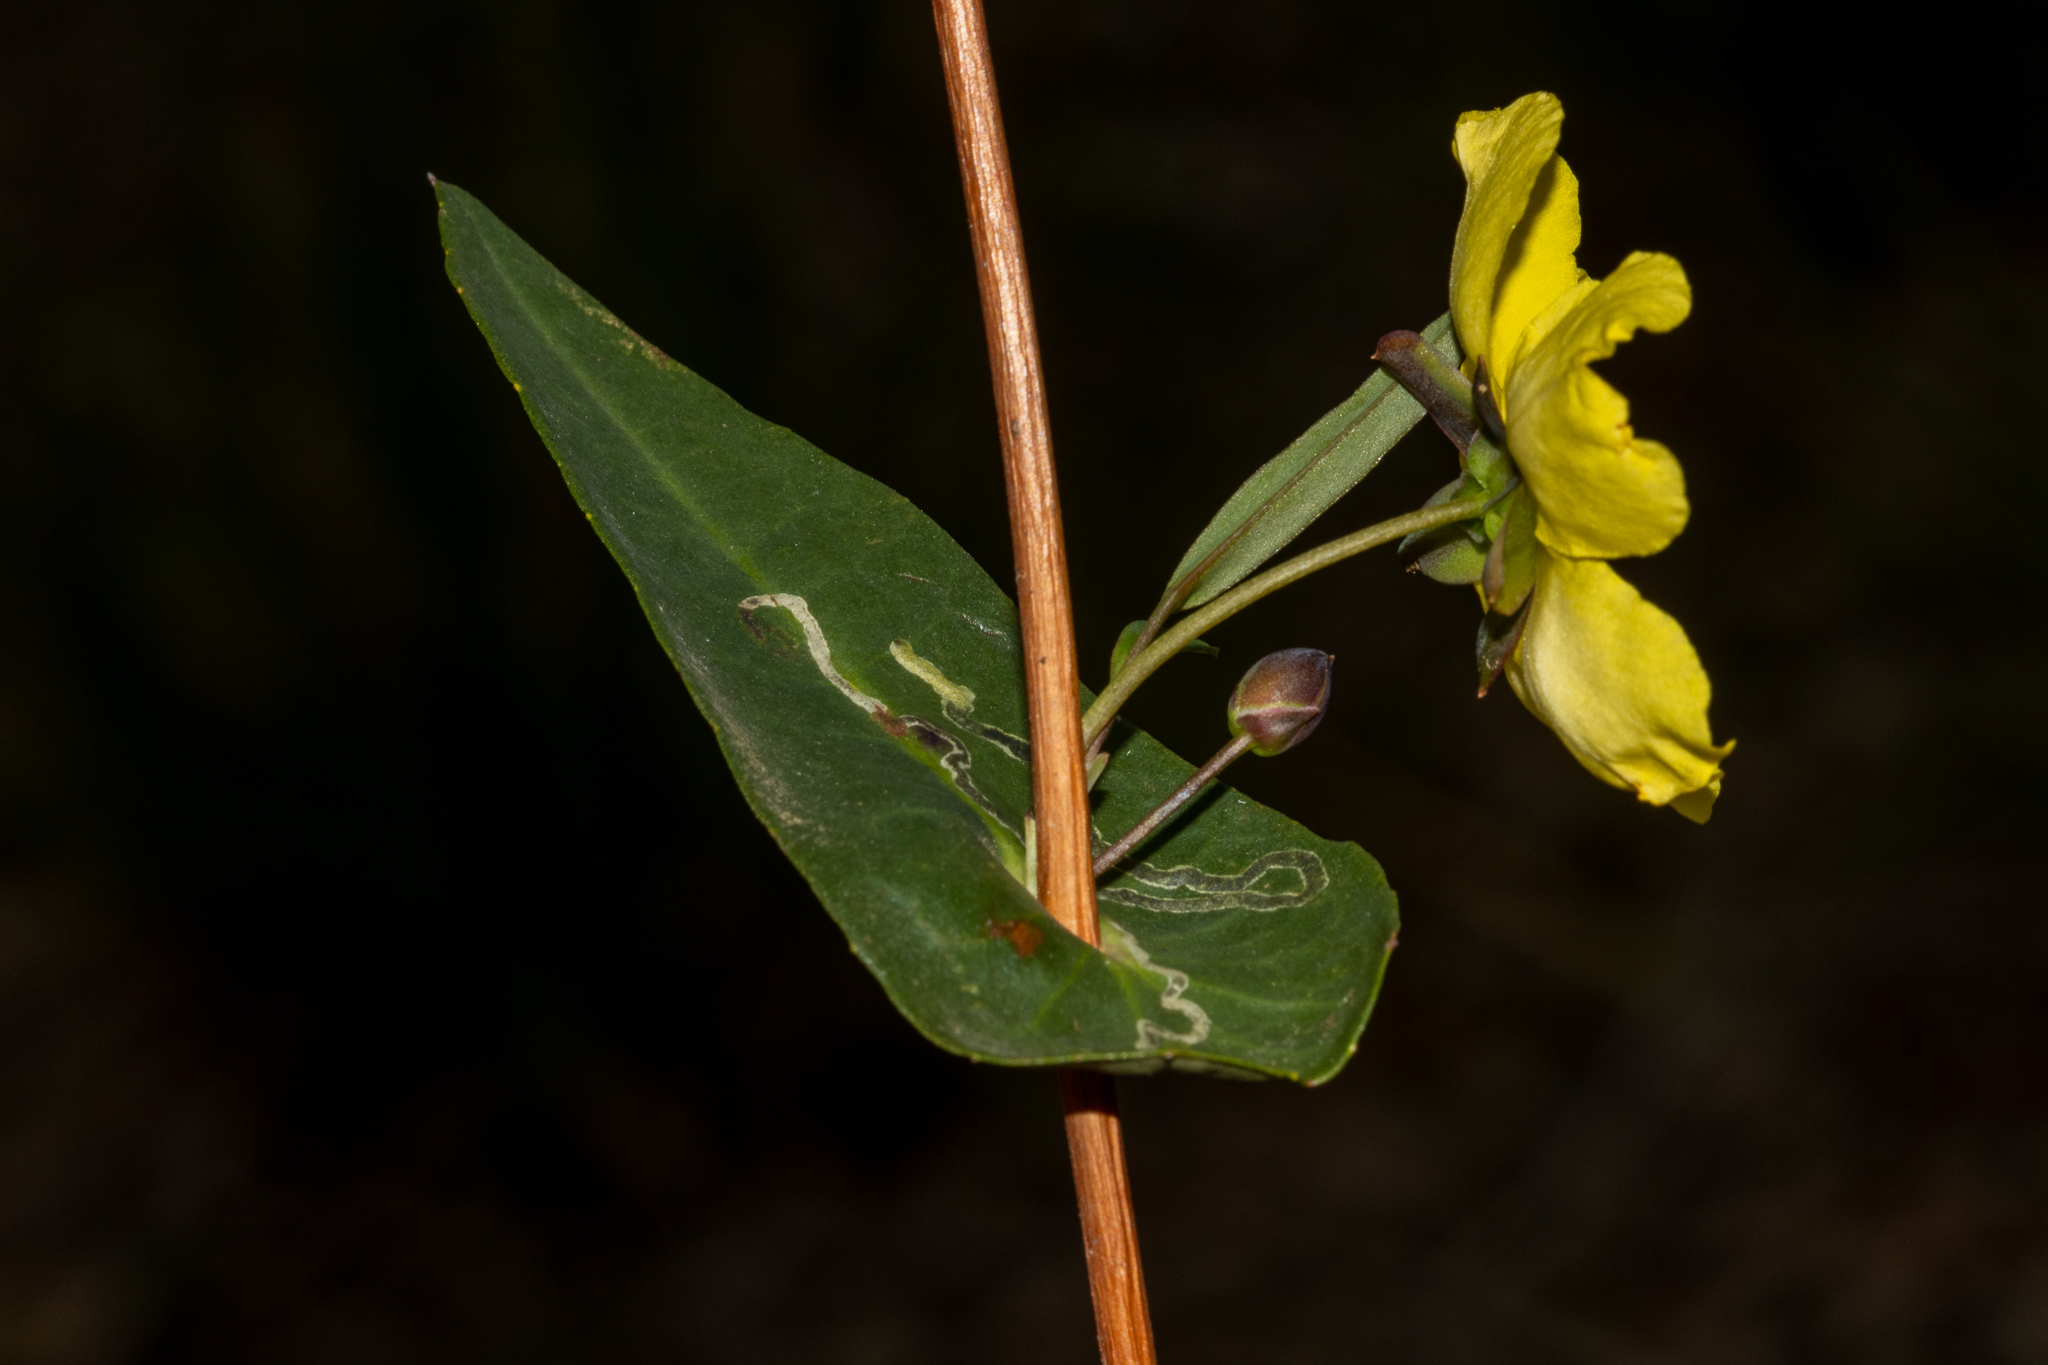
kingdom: Plantae
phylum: Tracheophyta
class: Magnoliopsida
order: Dilleniales
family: Dilleniaceae
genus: Hibbertia
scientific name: Hibbertia cunninghamii
